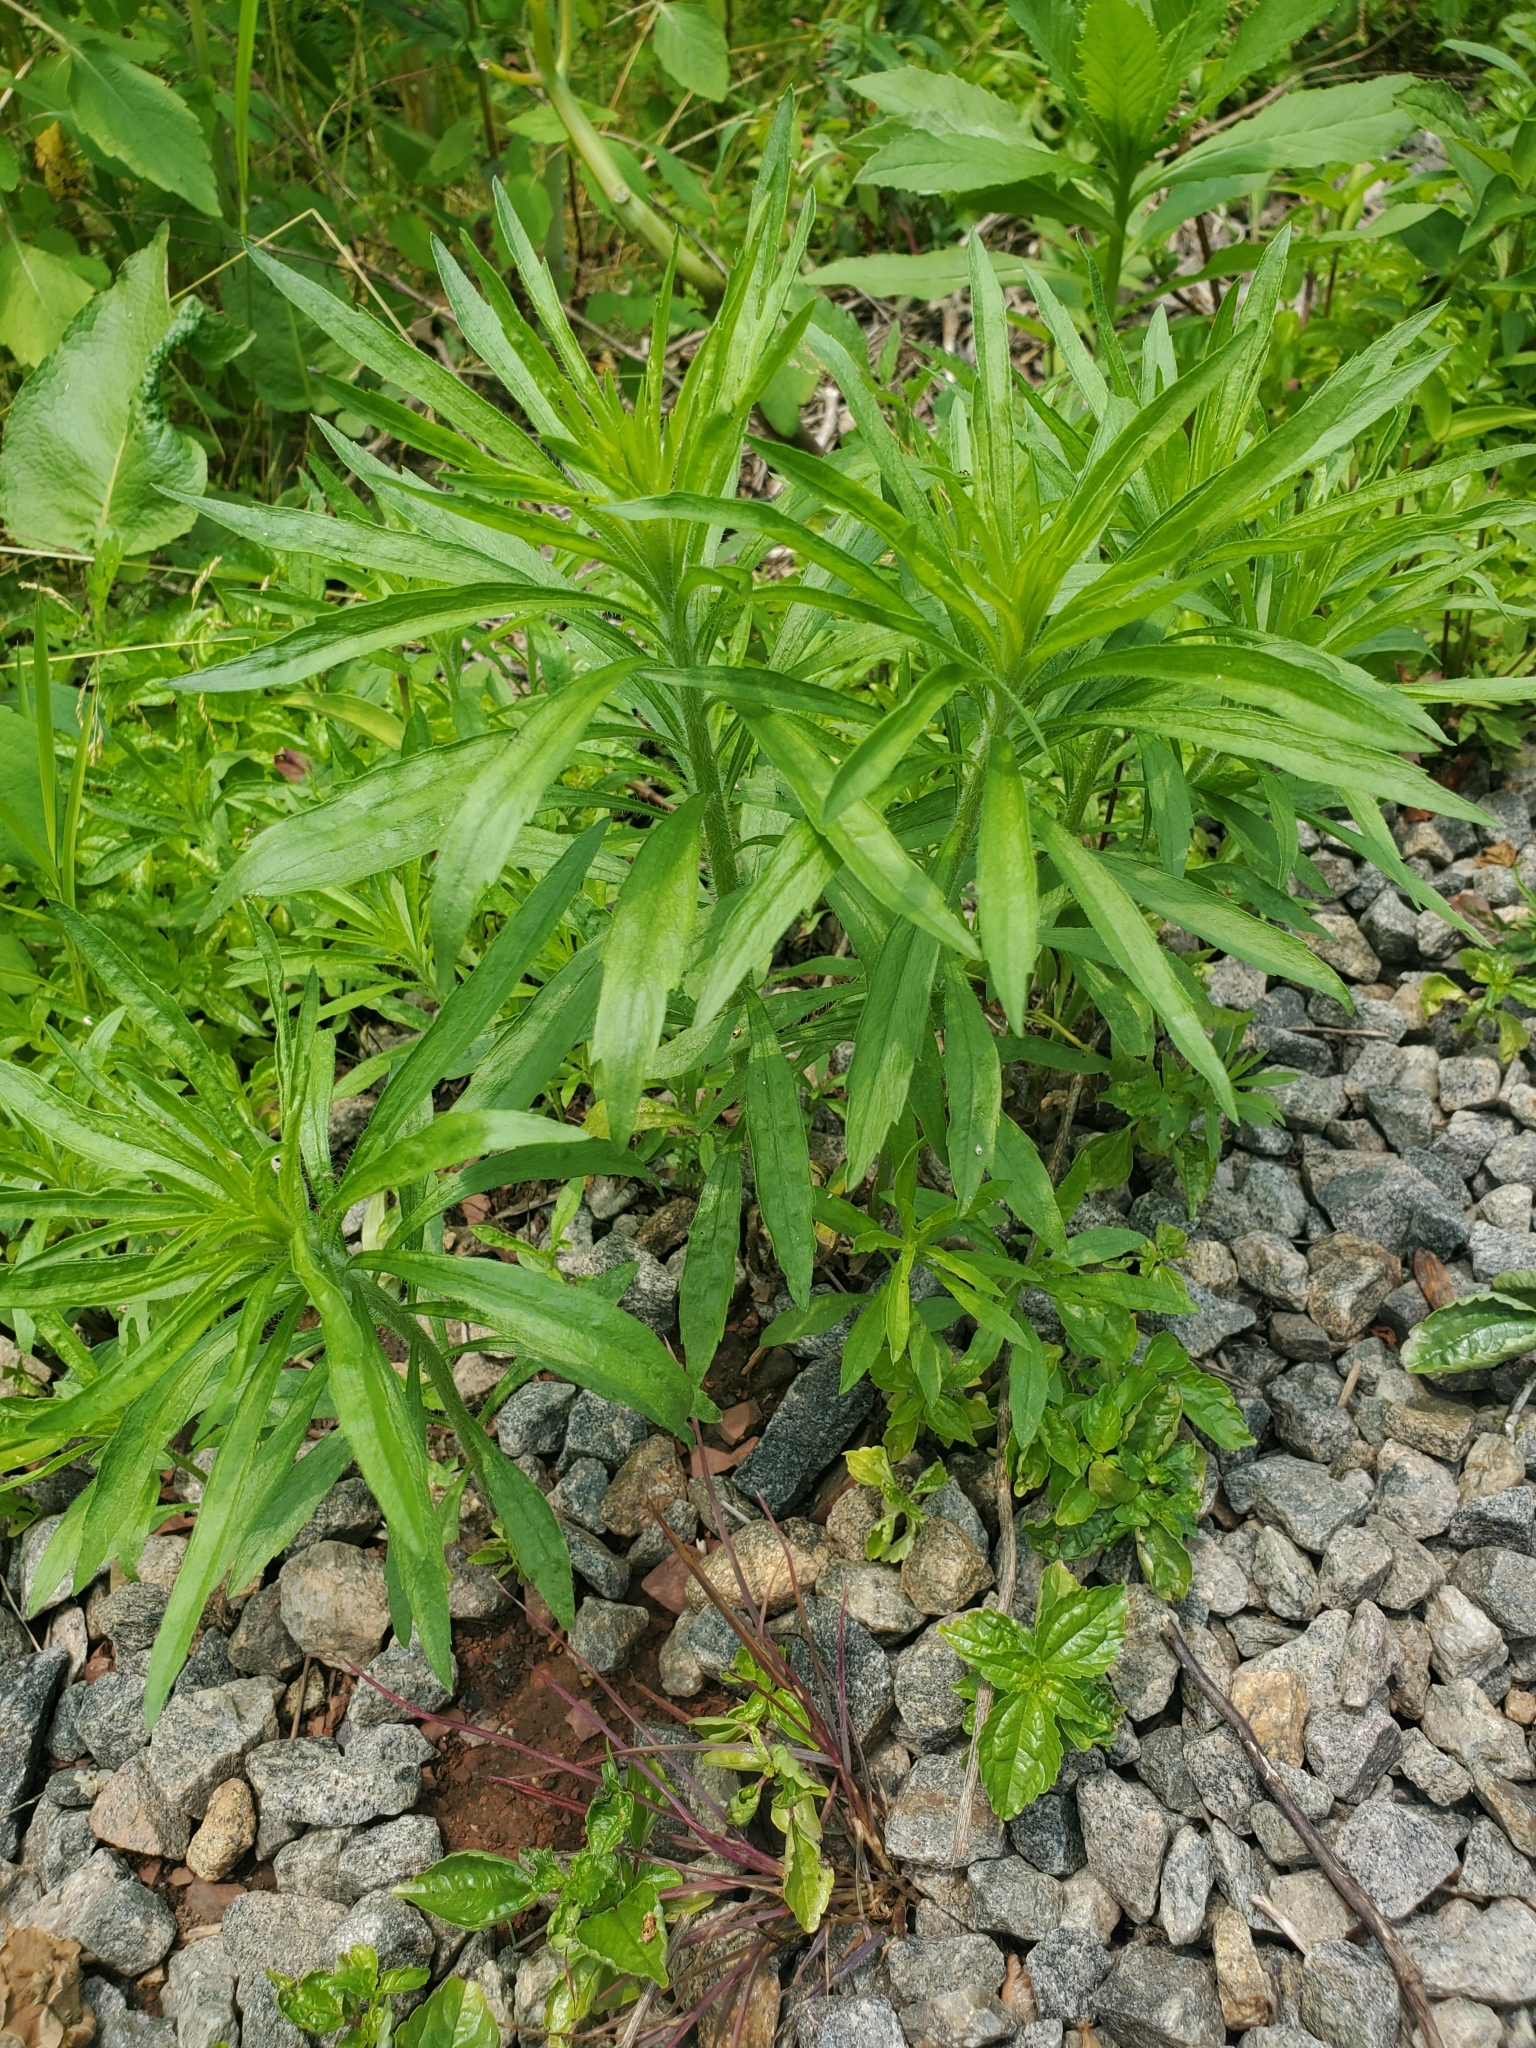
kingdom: Plantae
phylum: Tracheophyta
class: Magnoliopsida
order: Asterales
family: Asteraceae
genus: Erigeron
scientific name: Erigeron canadensis
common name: Canadian fleabane
